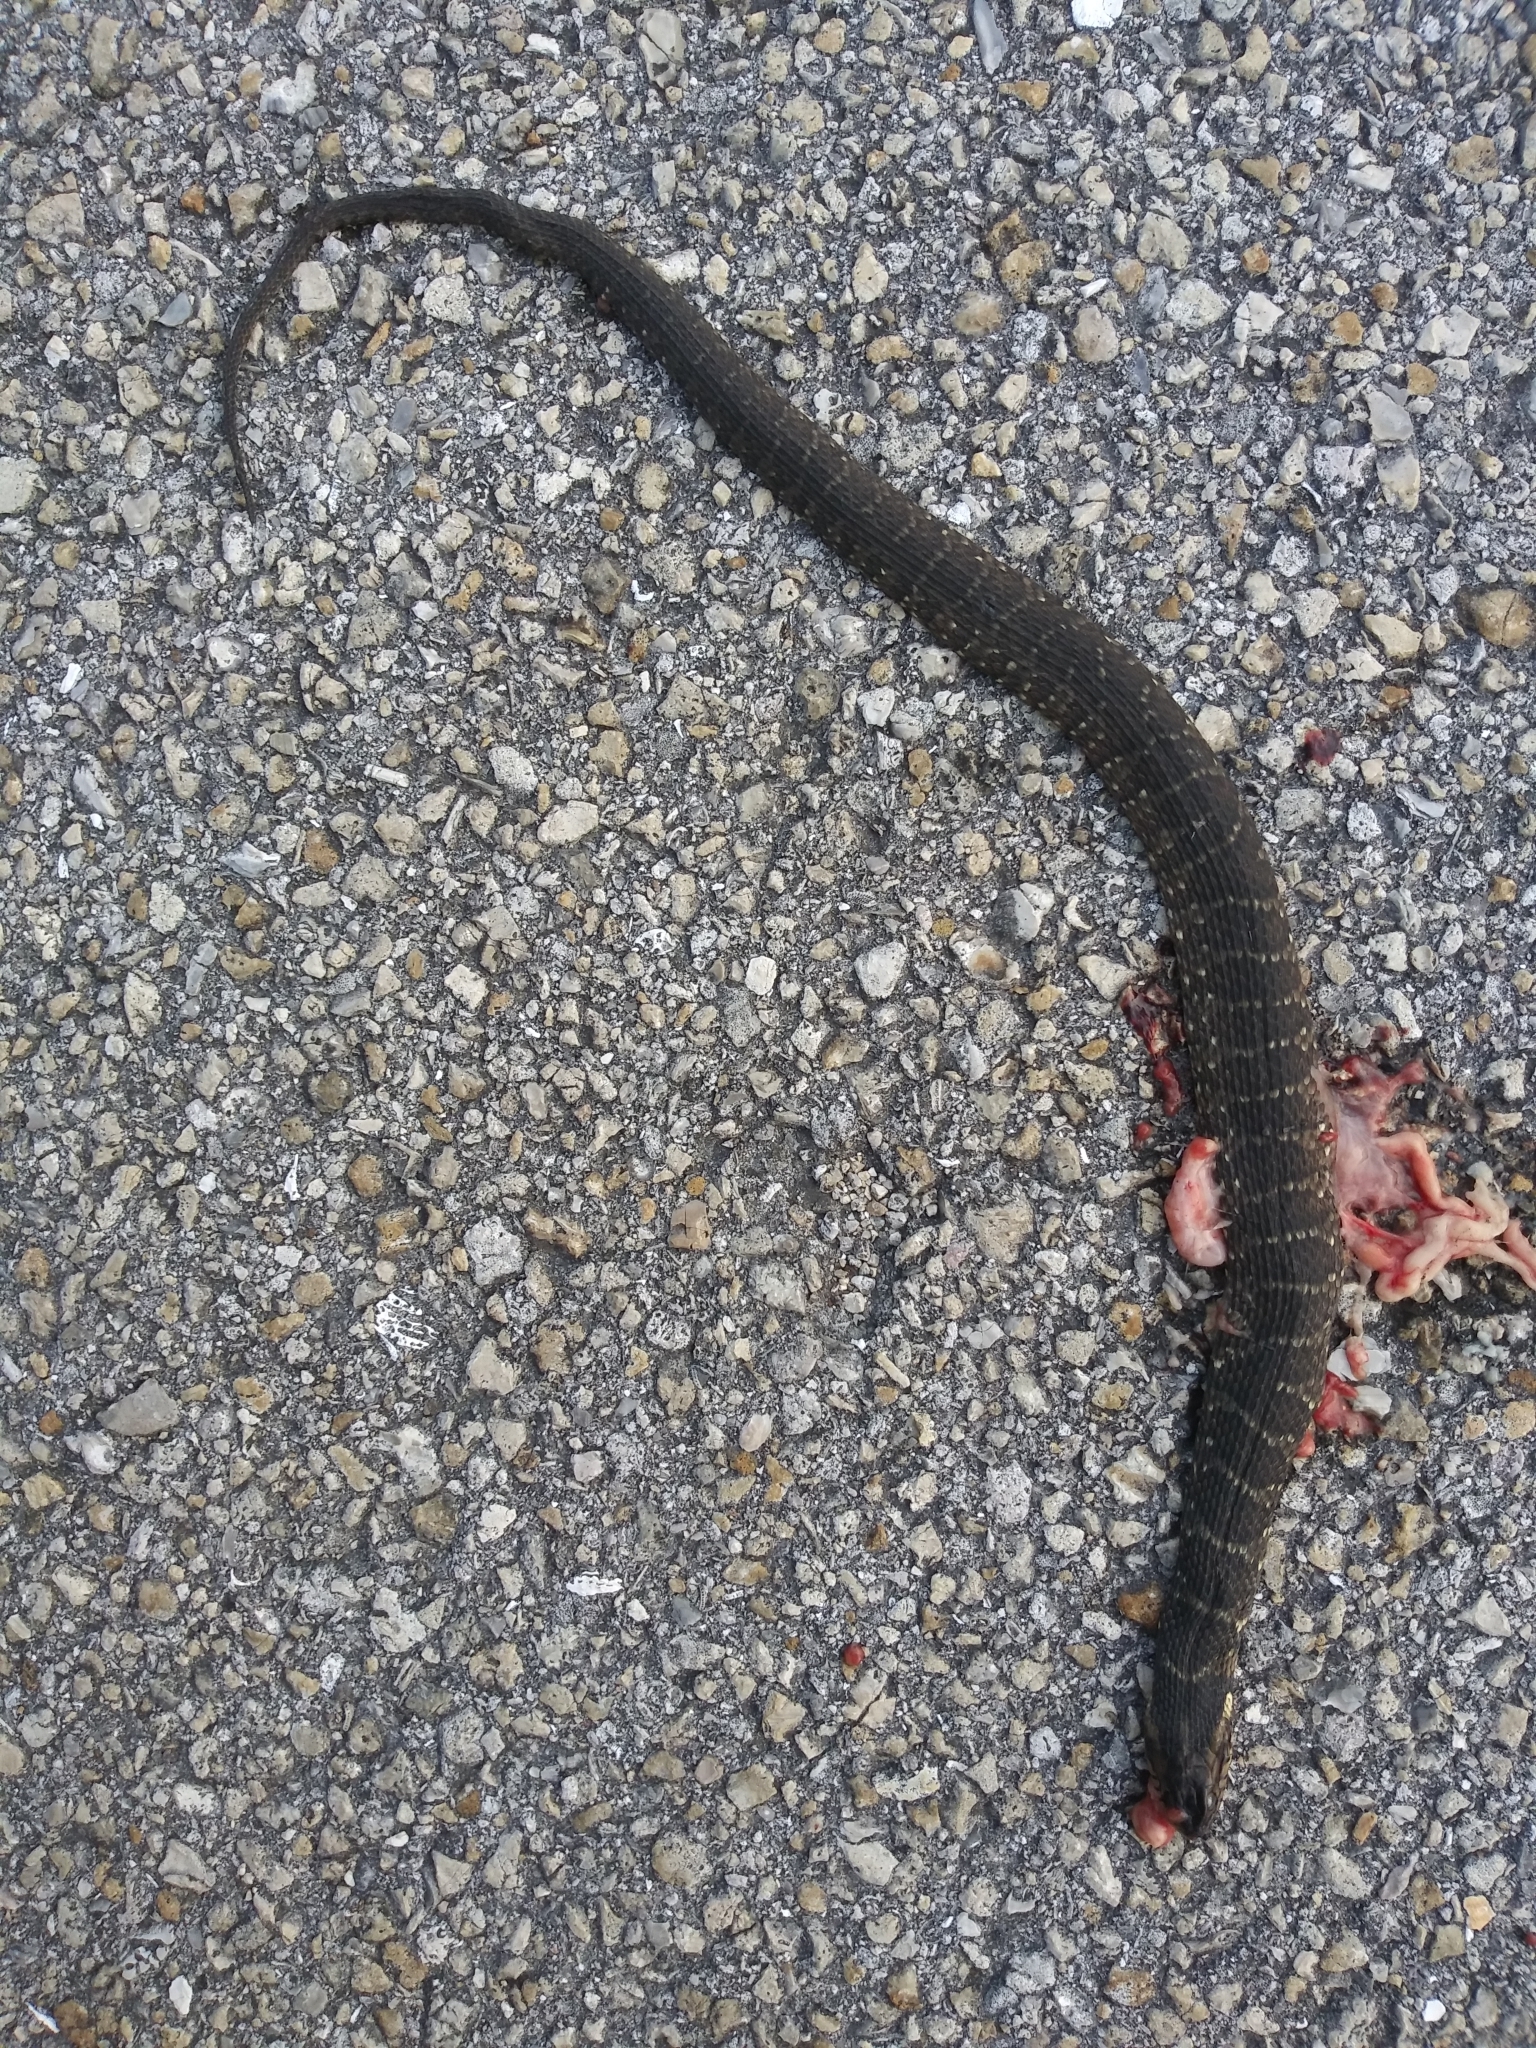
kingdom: Animalia
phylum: Chordata
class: Squamata
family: Colubridae
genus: Nerodia
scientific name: Nerodia fasciata
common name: Southern water snake
